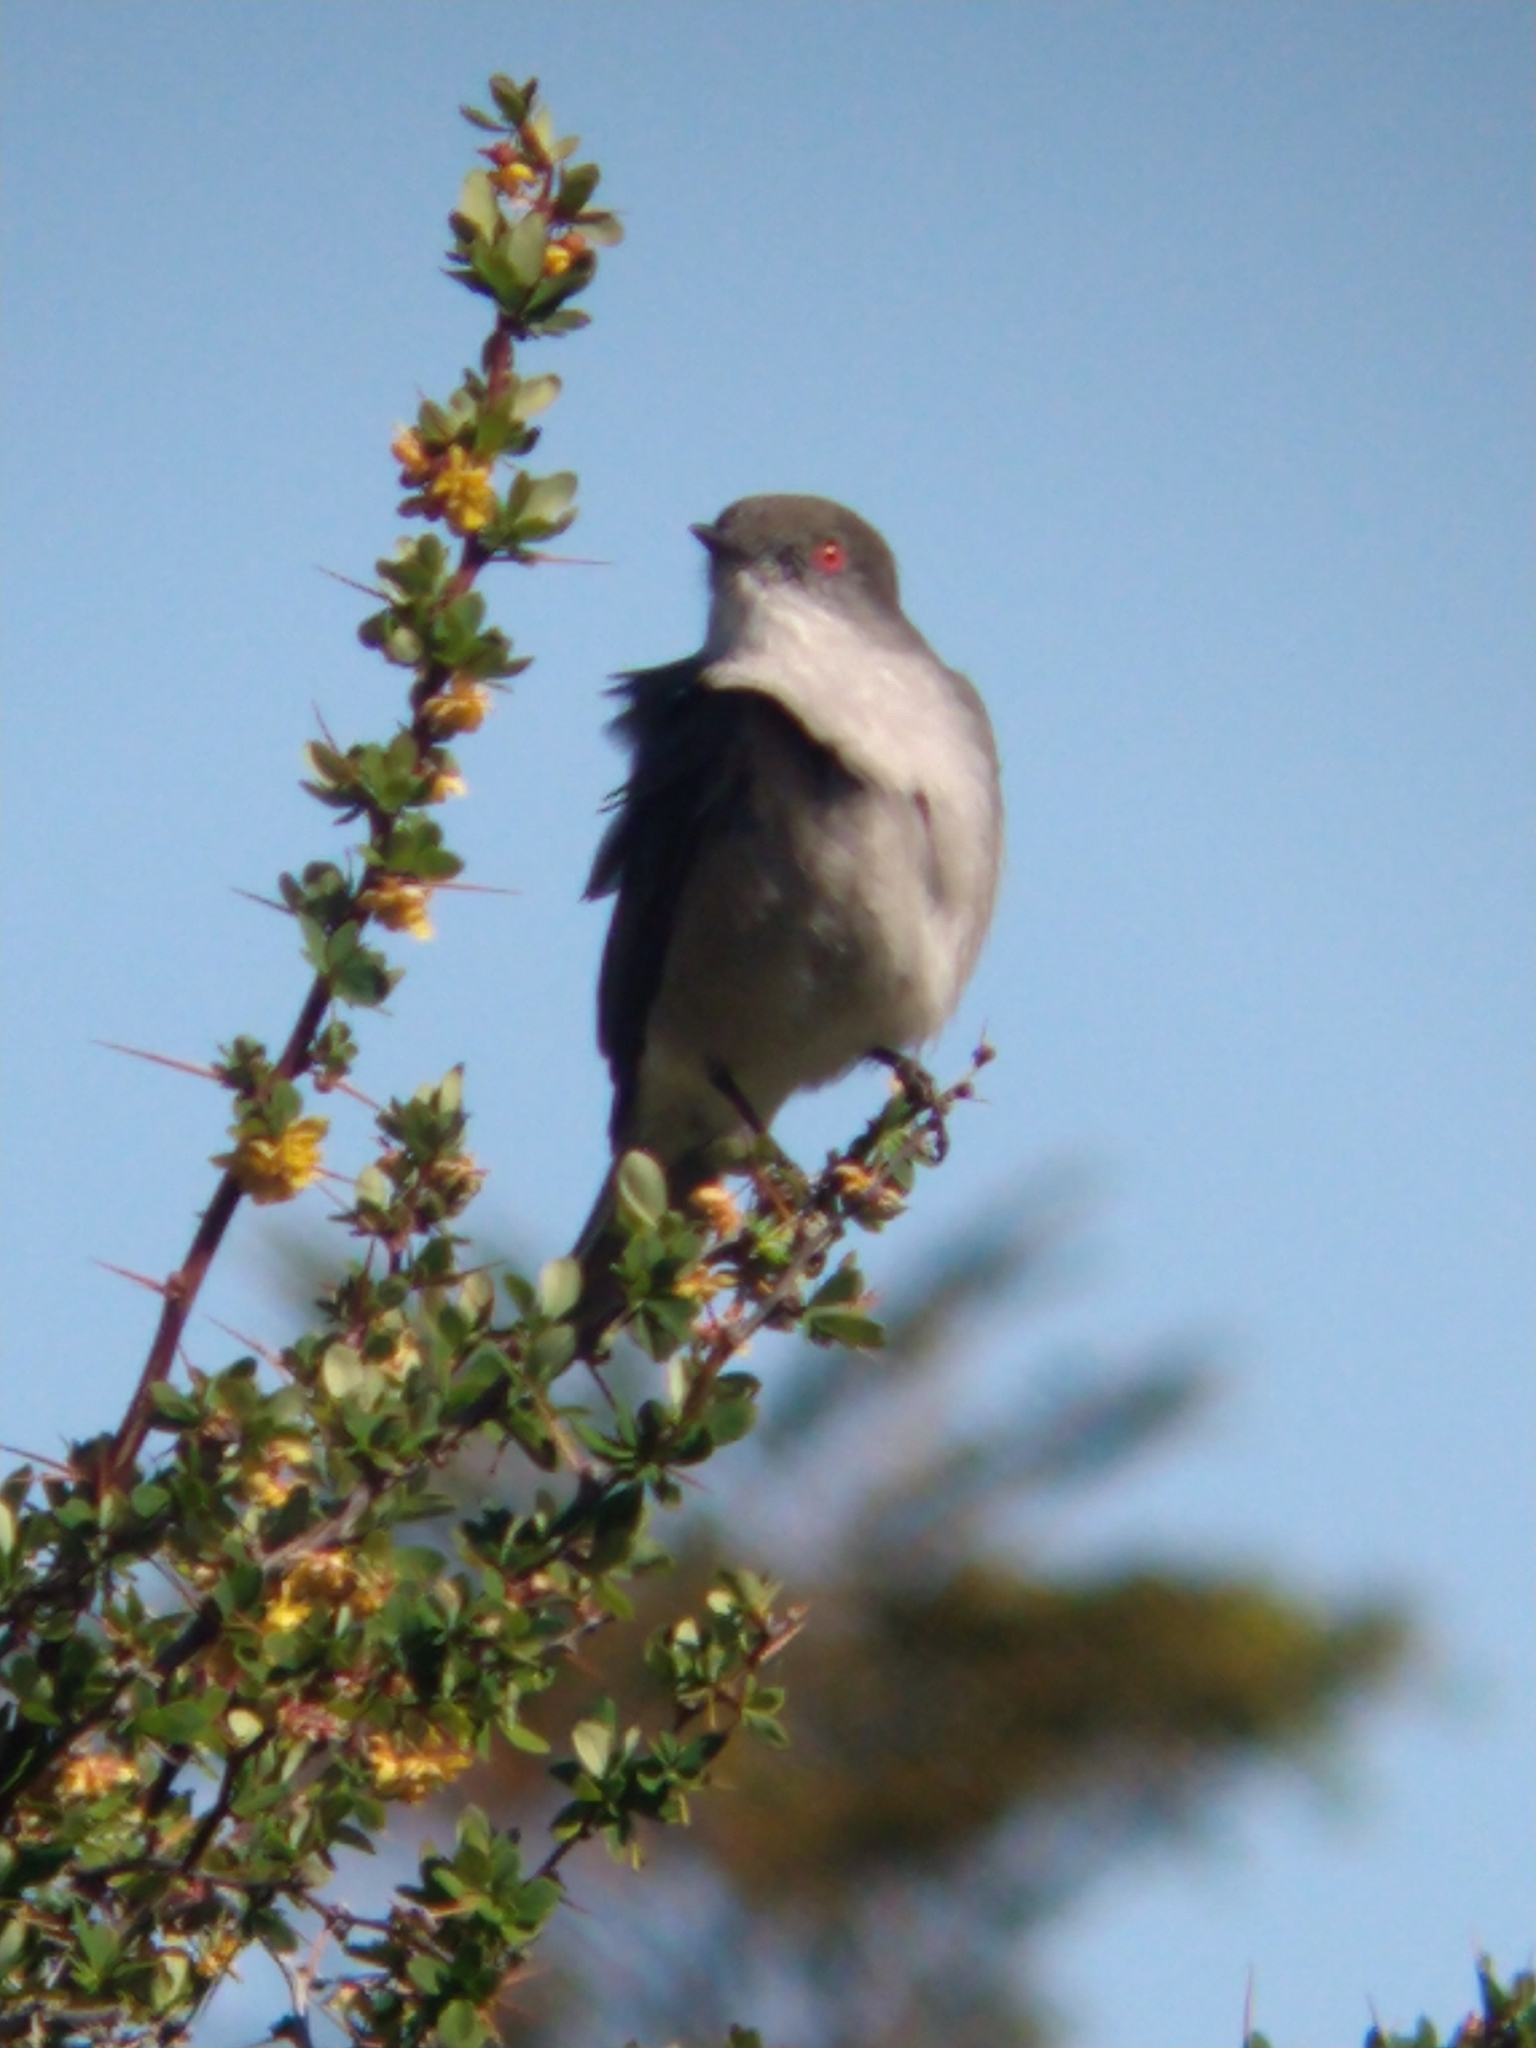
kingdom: Animalia
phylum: Chordata
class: Aves
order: Passeriformes
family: Tyrannidae
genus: Xolmis
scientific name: Xolmis pyrope
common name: Fire-eyed diucon
